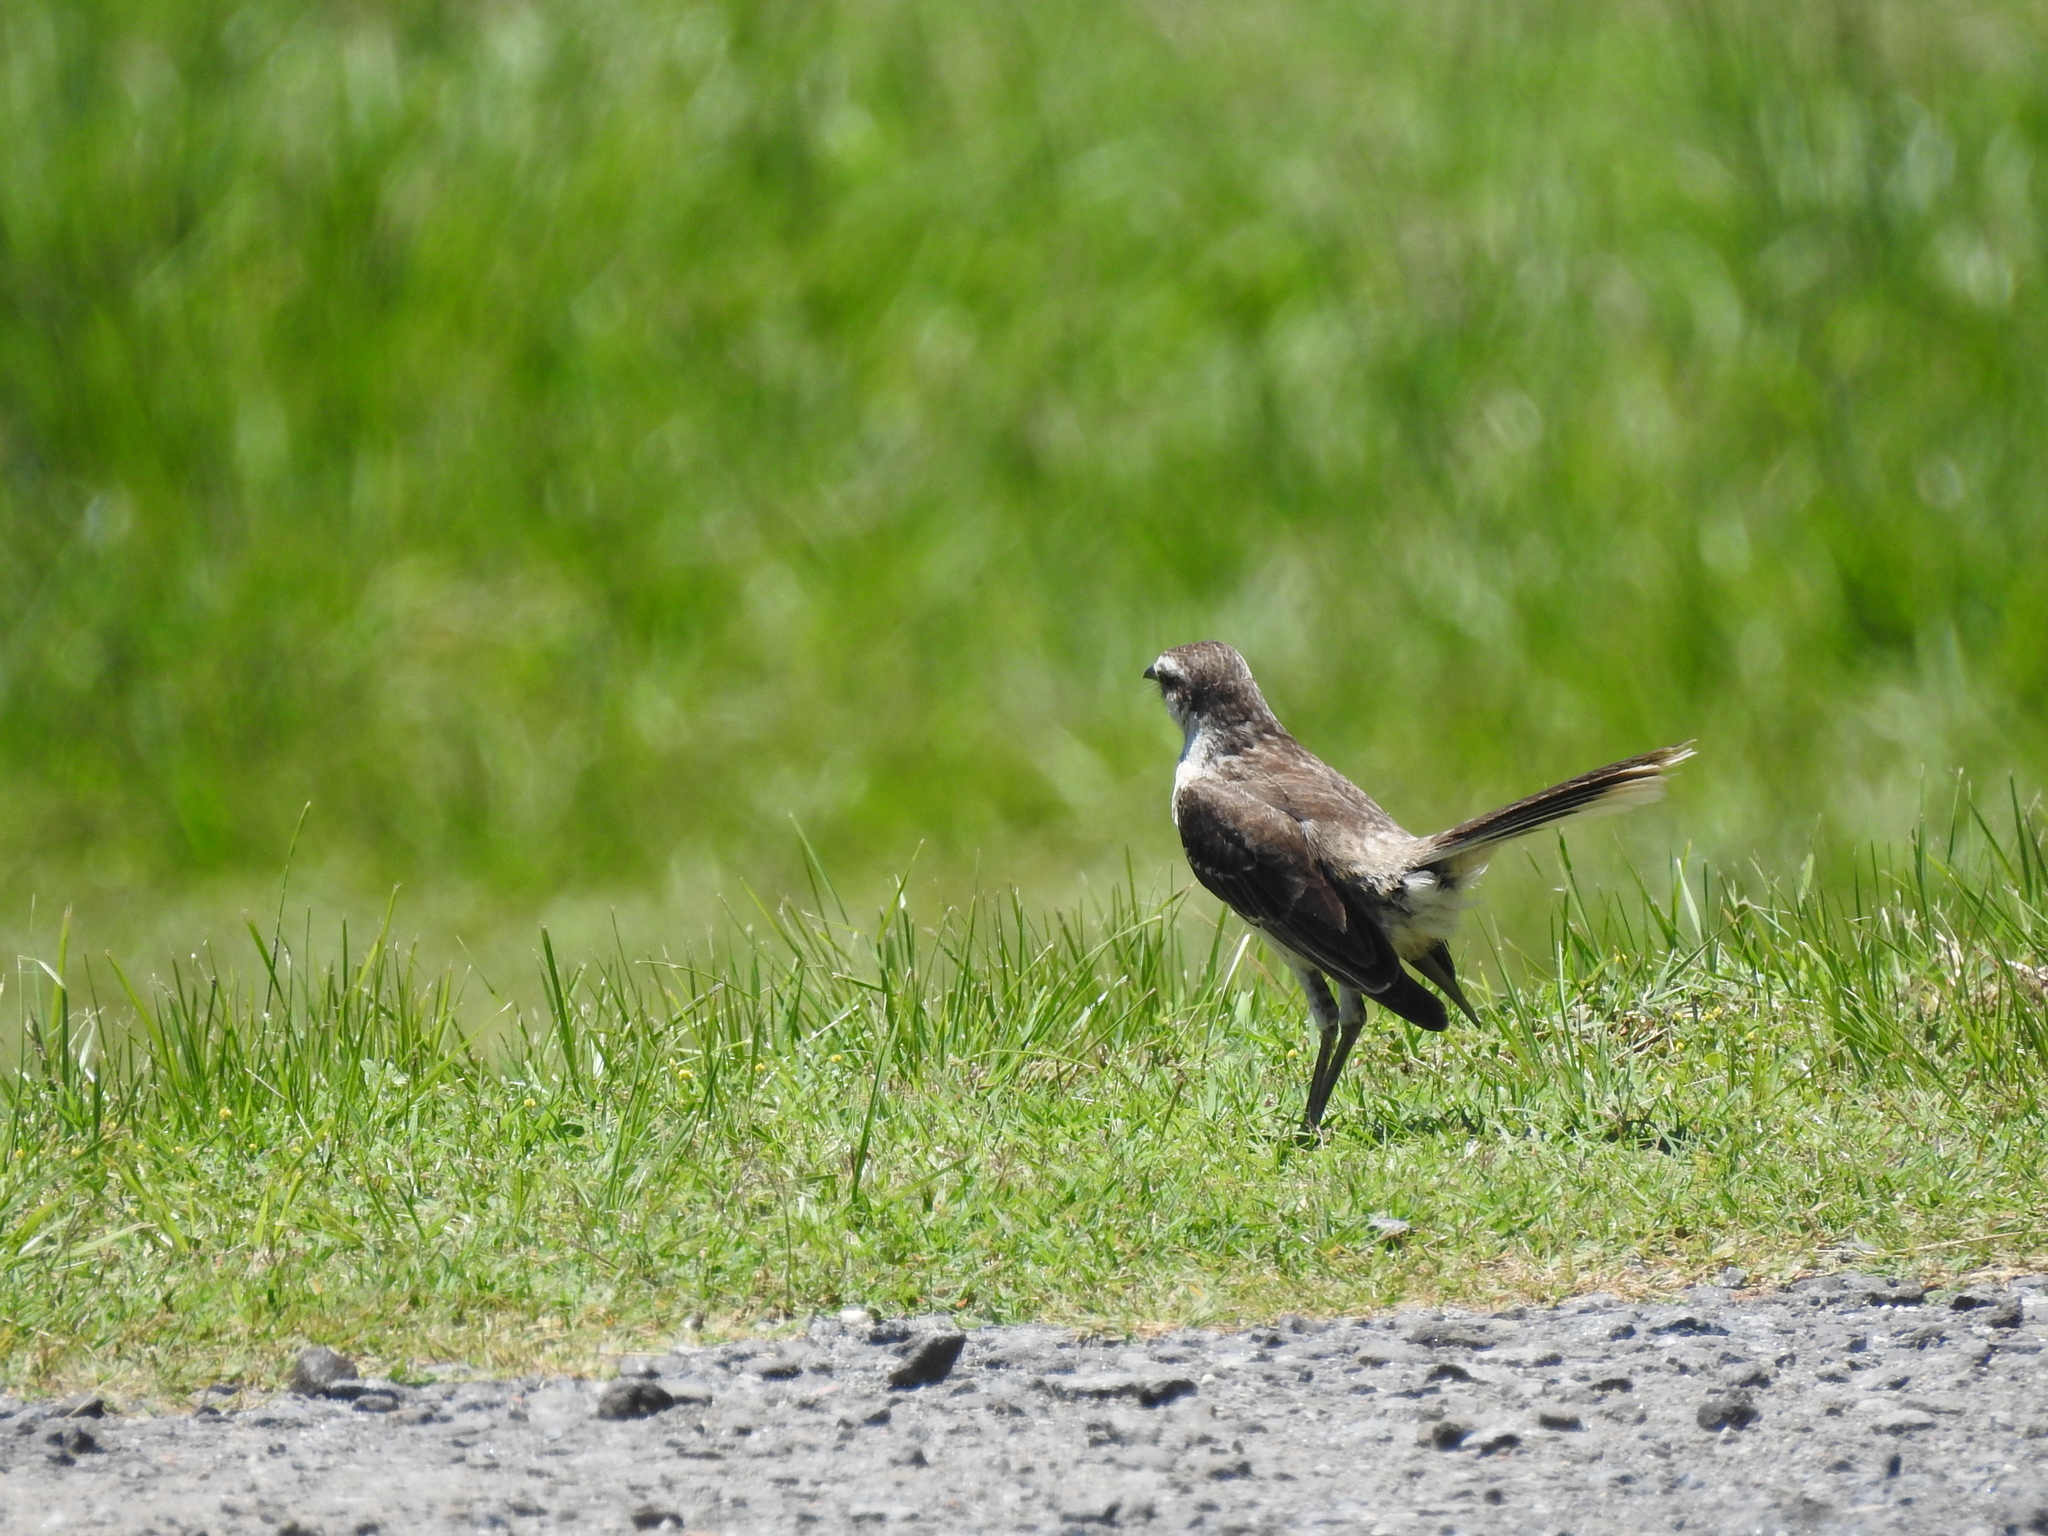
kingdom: Animalia
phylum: Chordata
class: Aves
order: Passeriformes
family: Mimidae
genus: Mimus
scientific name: Mimus saturninus
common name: Chalk-browed mockingbird
